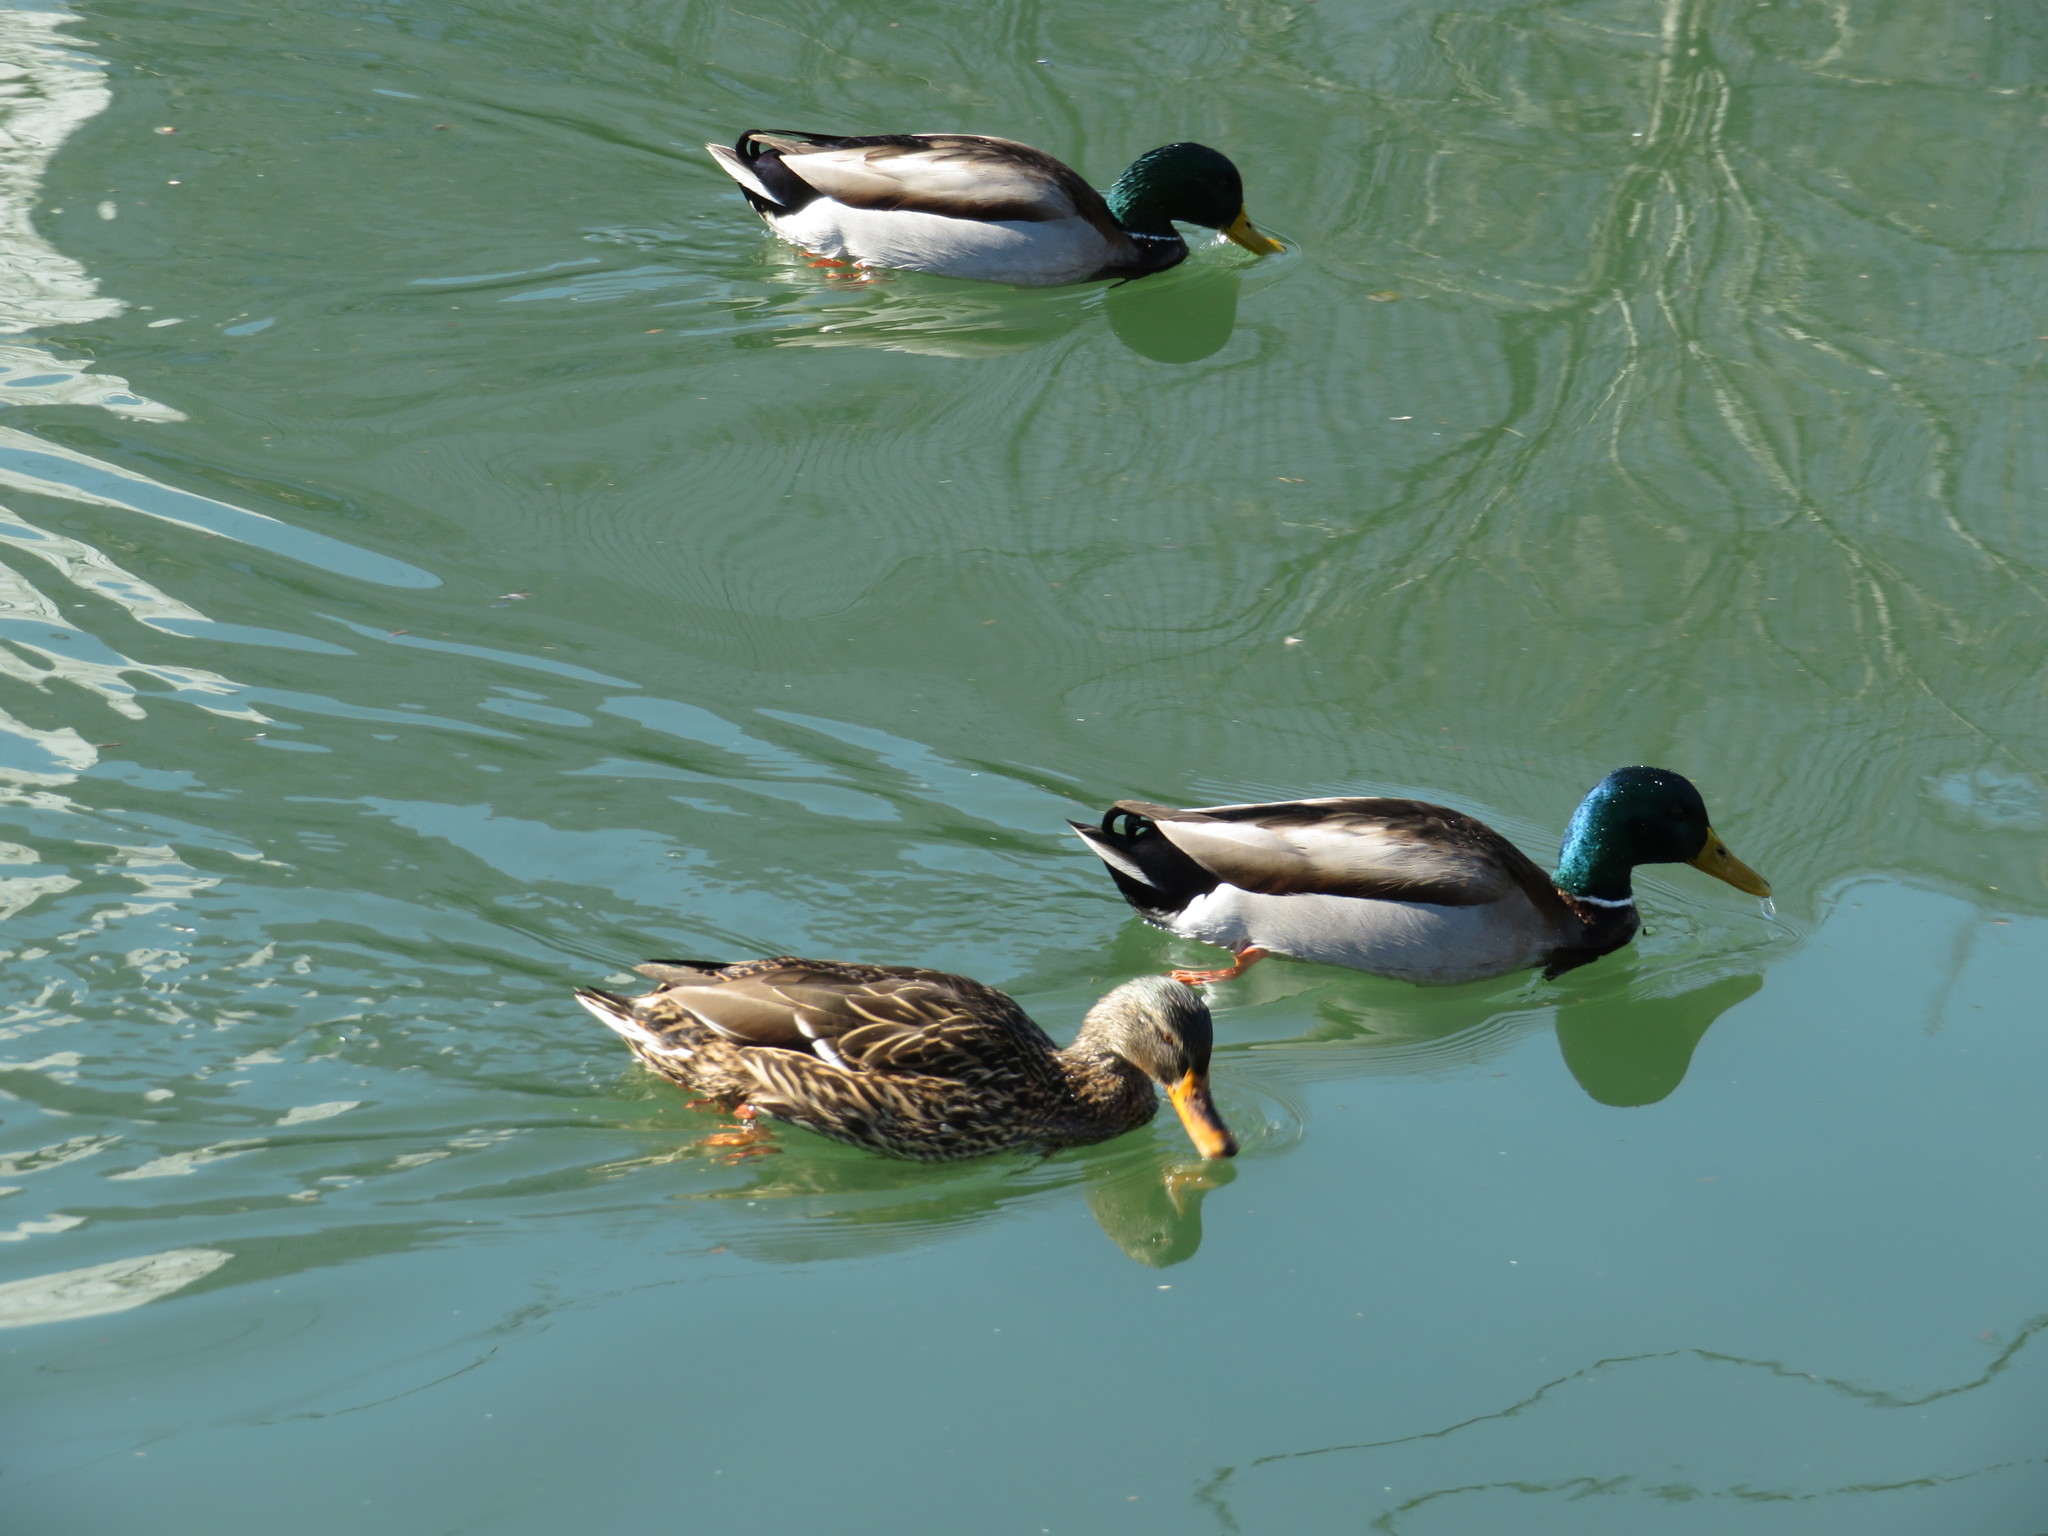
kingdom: Animalia
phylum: Chordata
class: Aves
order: Anseriformes
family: Anatidae
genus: Anas
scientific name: Anas platyrhynchos
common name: Mallard
